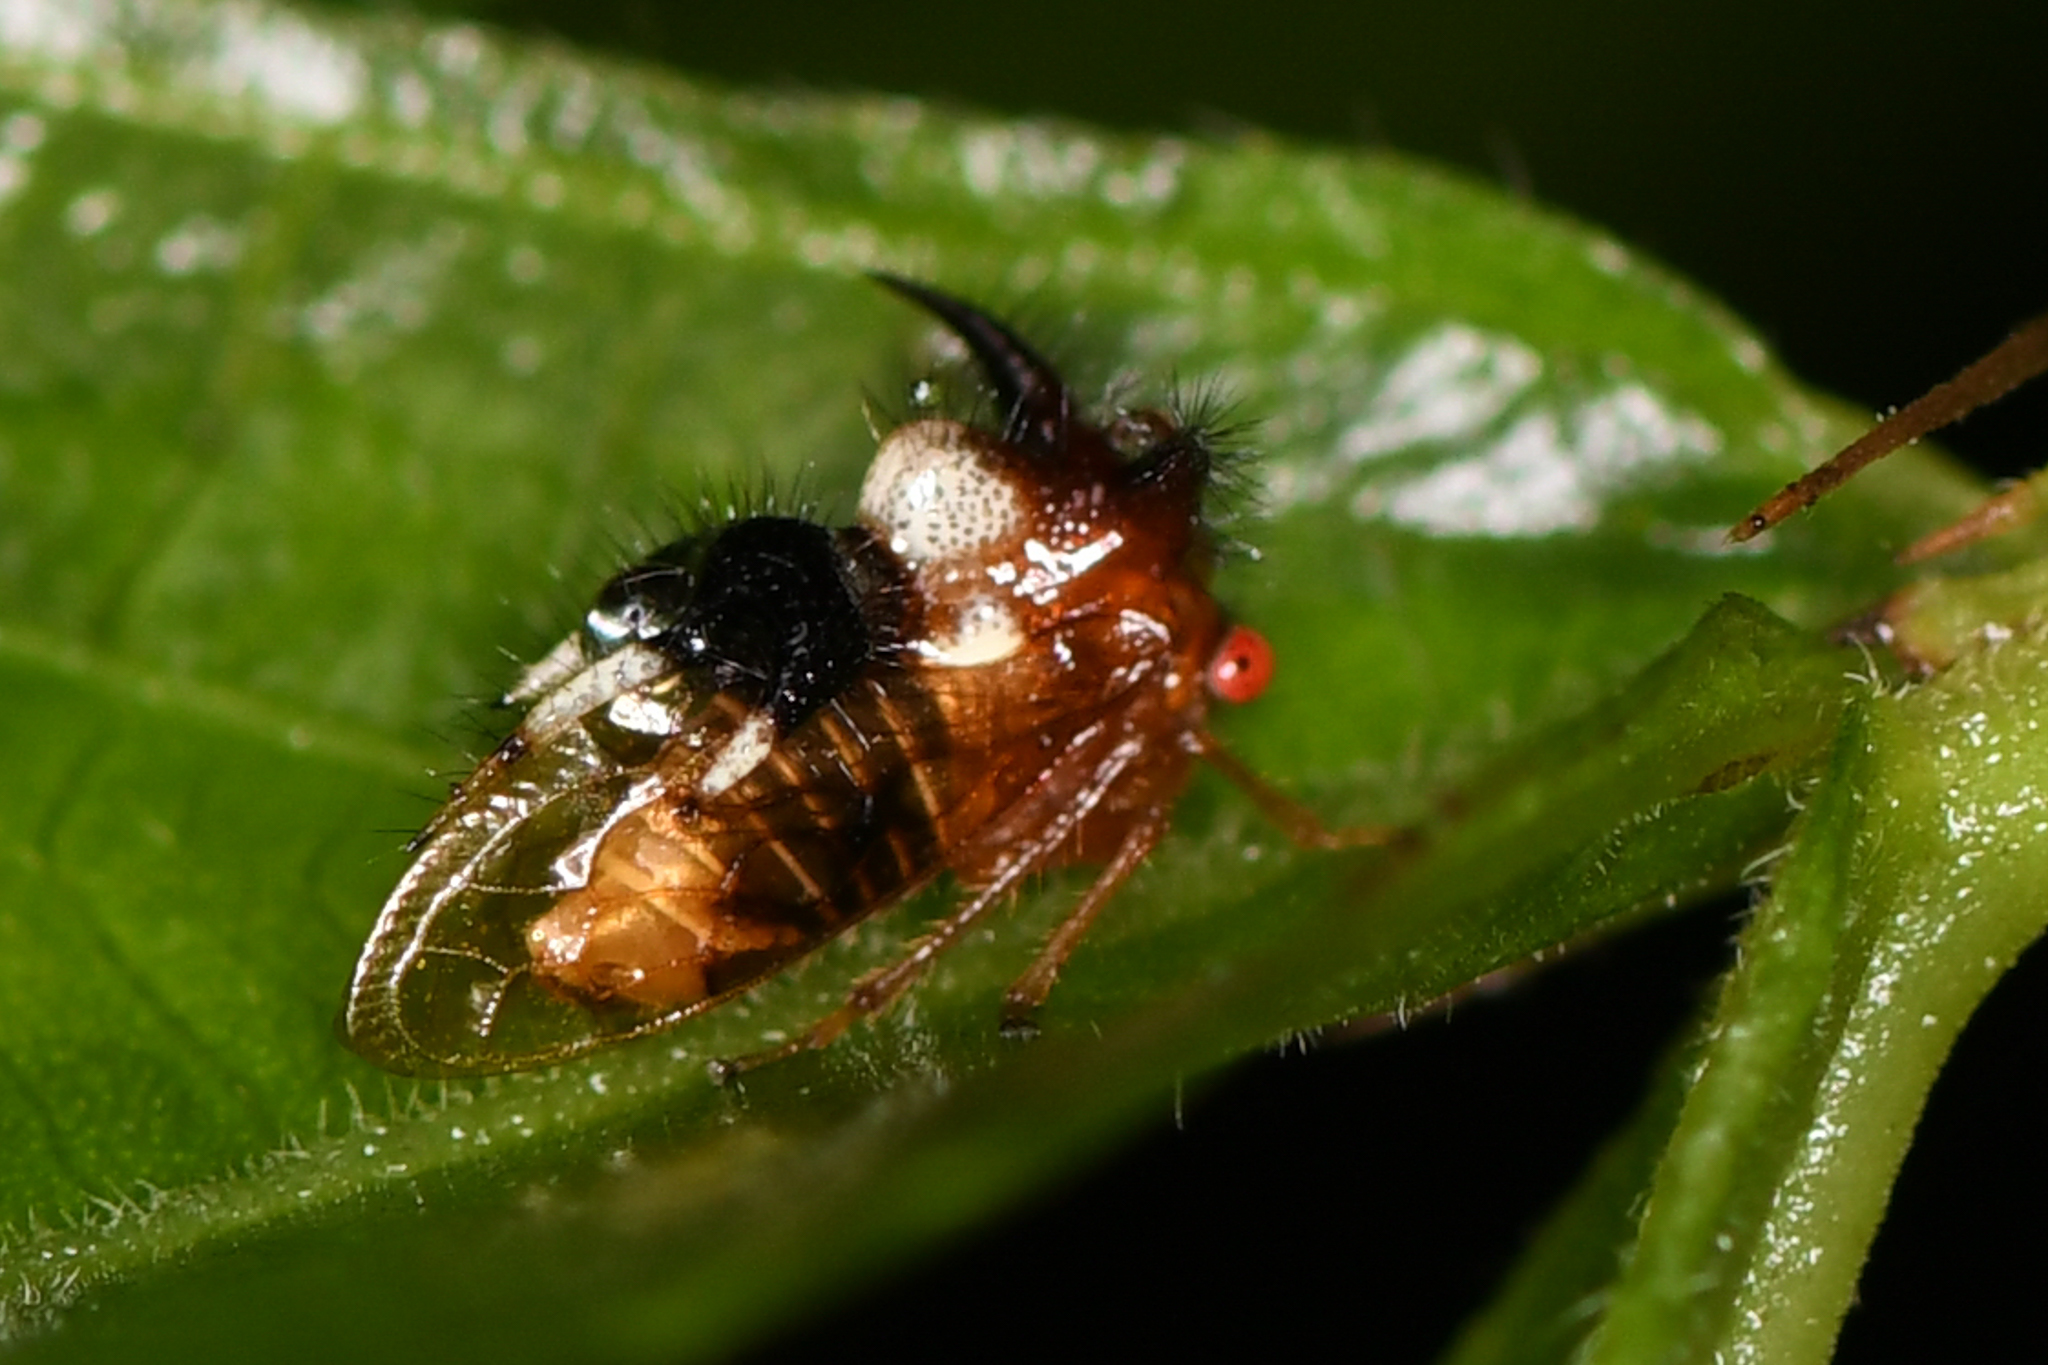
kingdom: Animalia
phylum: Arthropoda
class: Insecta
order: Hemiptera
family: Membracidae
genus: Poppea
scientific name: Poppea capricornis
